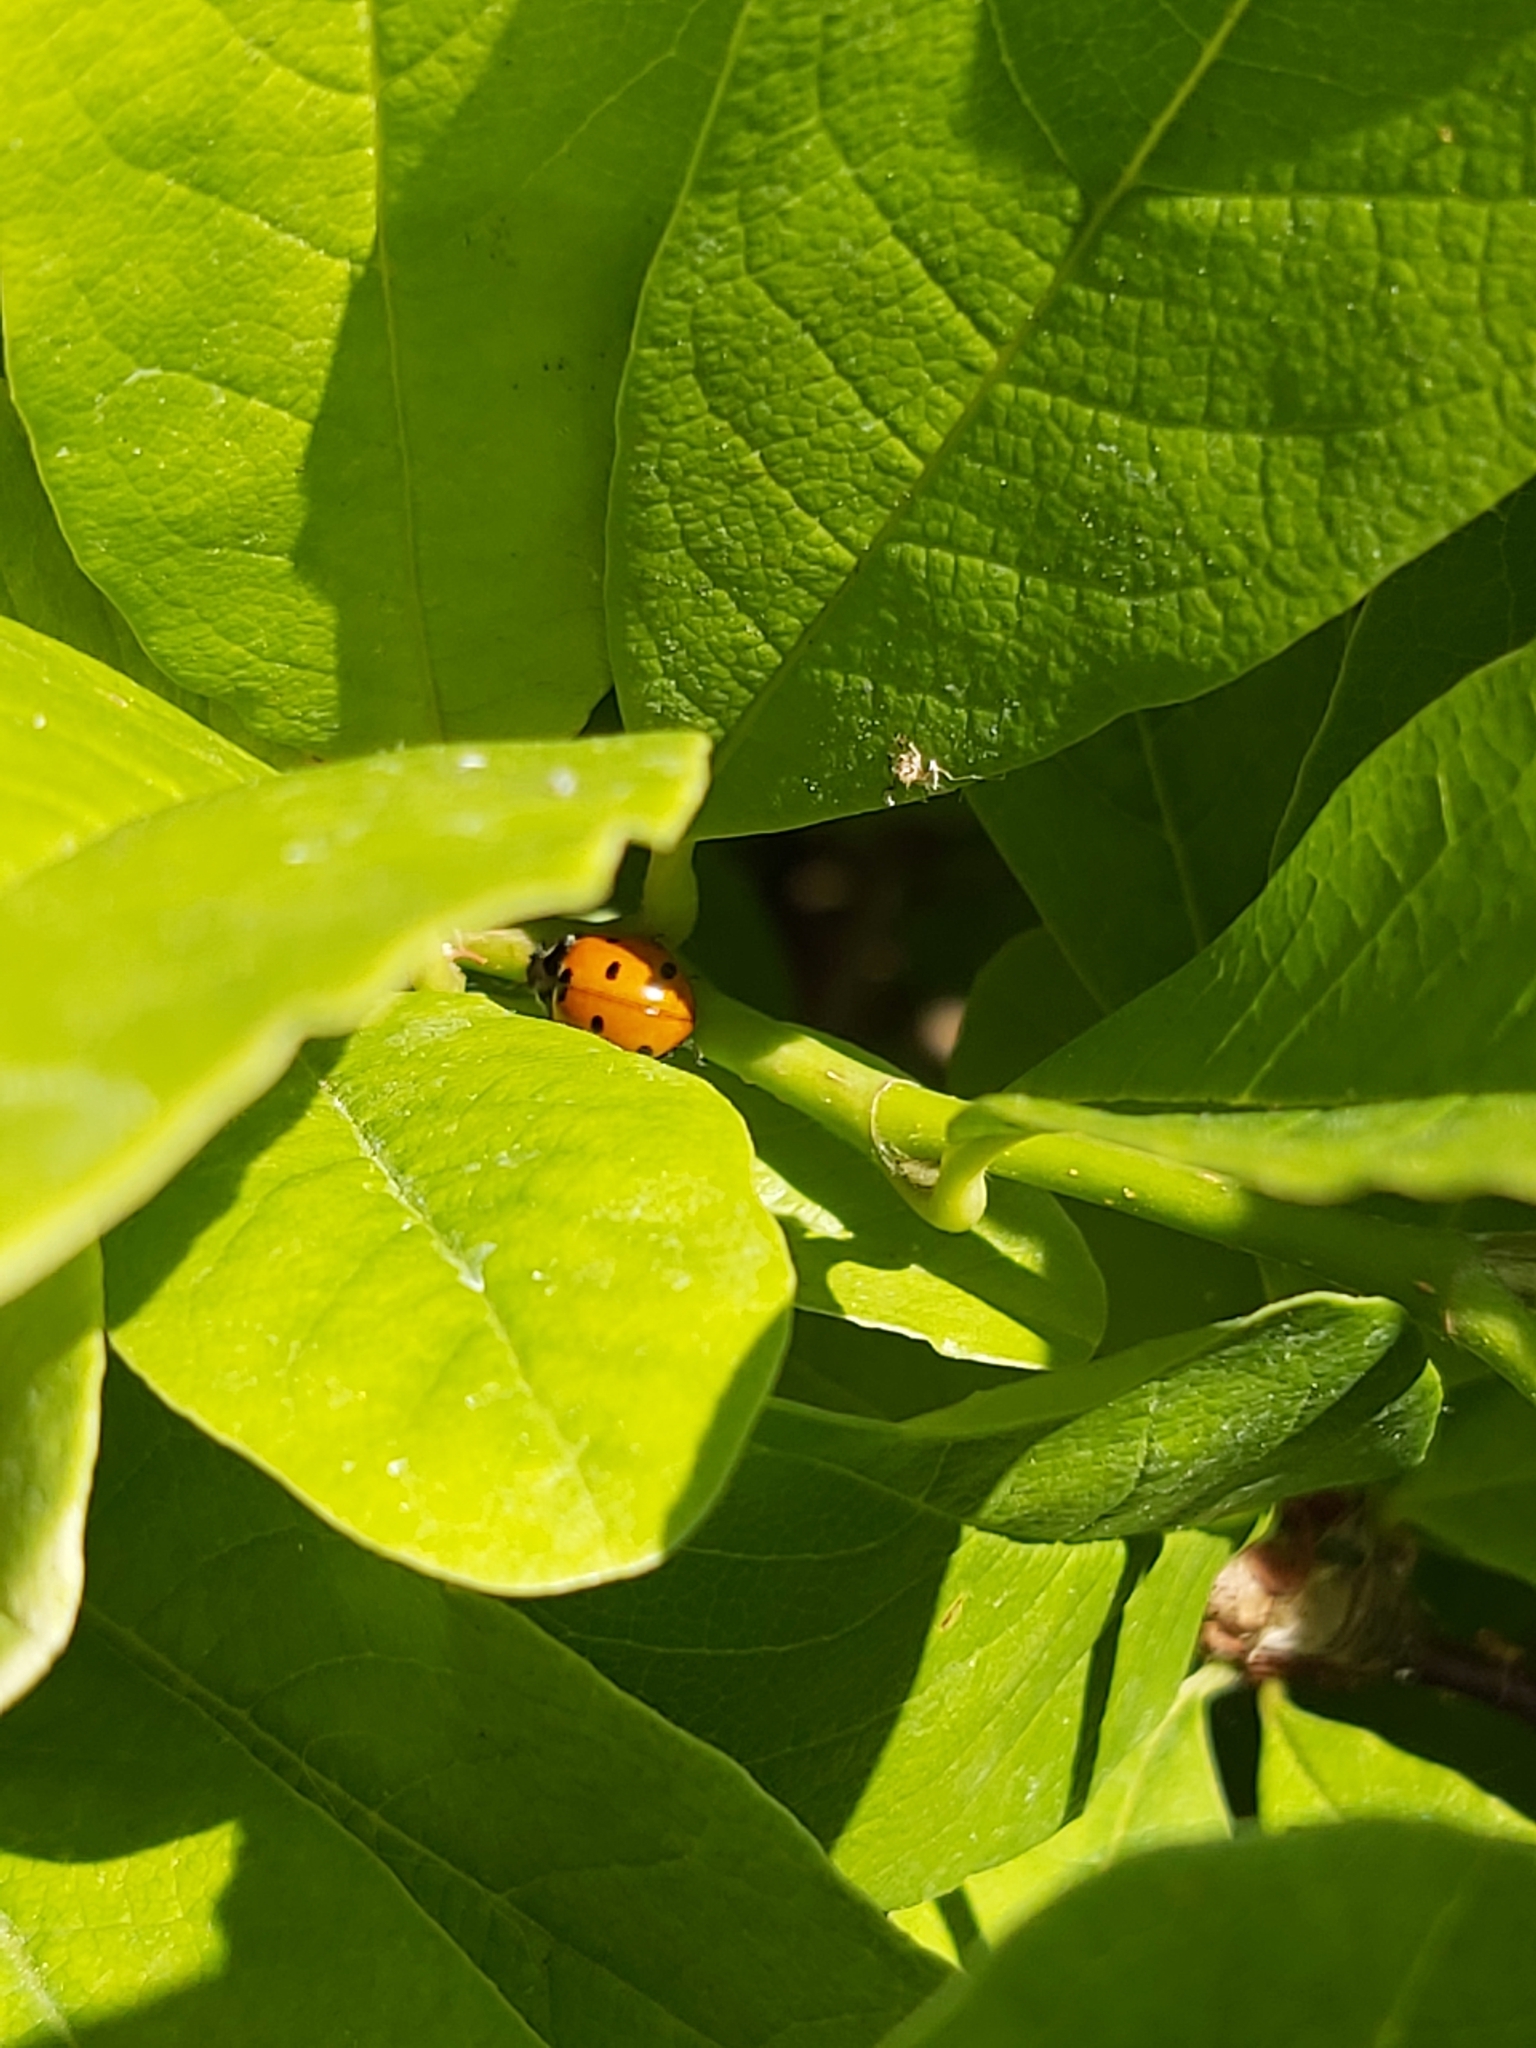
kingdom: Animalia
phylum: Arthropoda
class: Insecta
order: Coleoptera
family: Coccinellidae
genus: Coccinella
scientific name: Coccinella septempunctata
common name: Sevenspotted lady beetle
